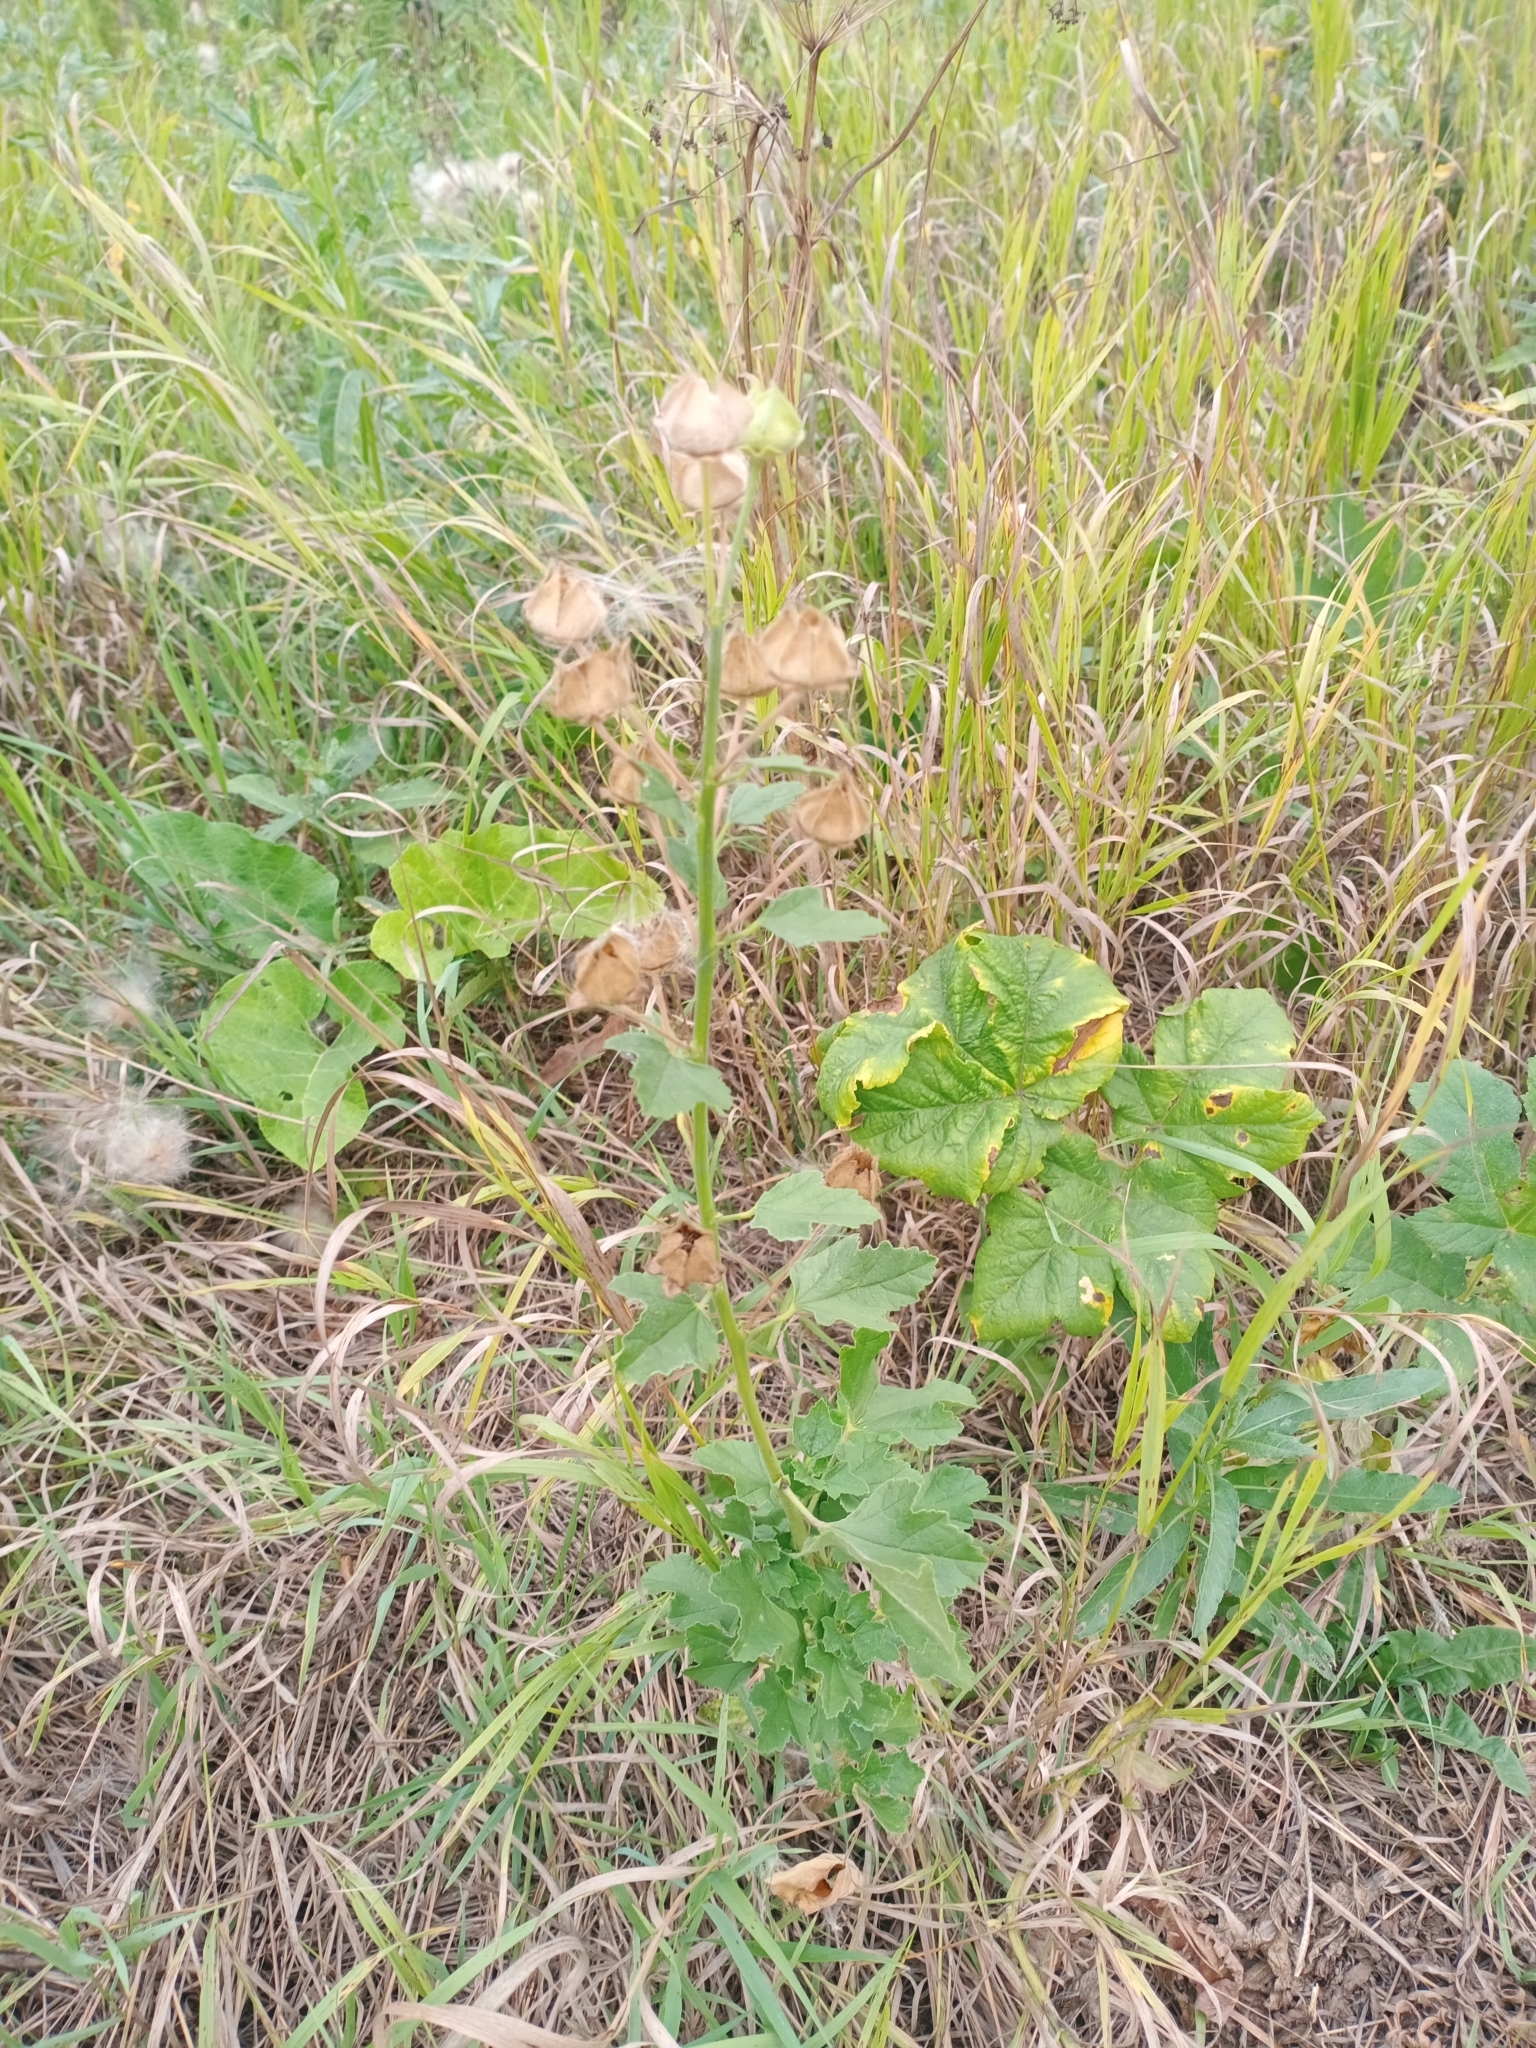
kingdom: Plantae
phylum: Tracheophyta
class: Magnoliopsida
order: Malvales
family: Malvaceae
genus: Malva
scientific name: Malva thuringiaca
